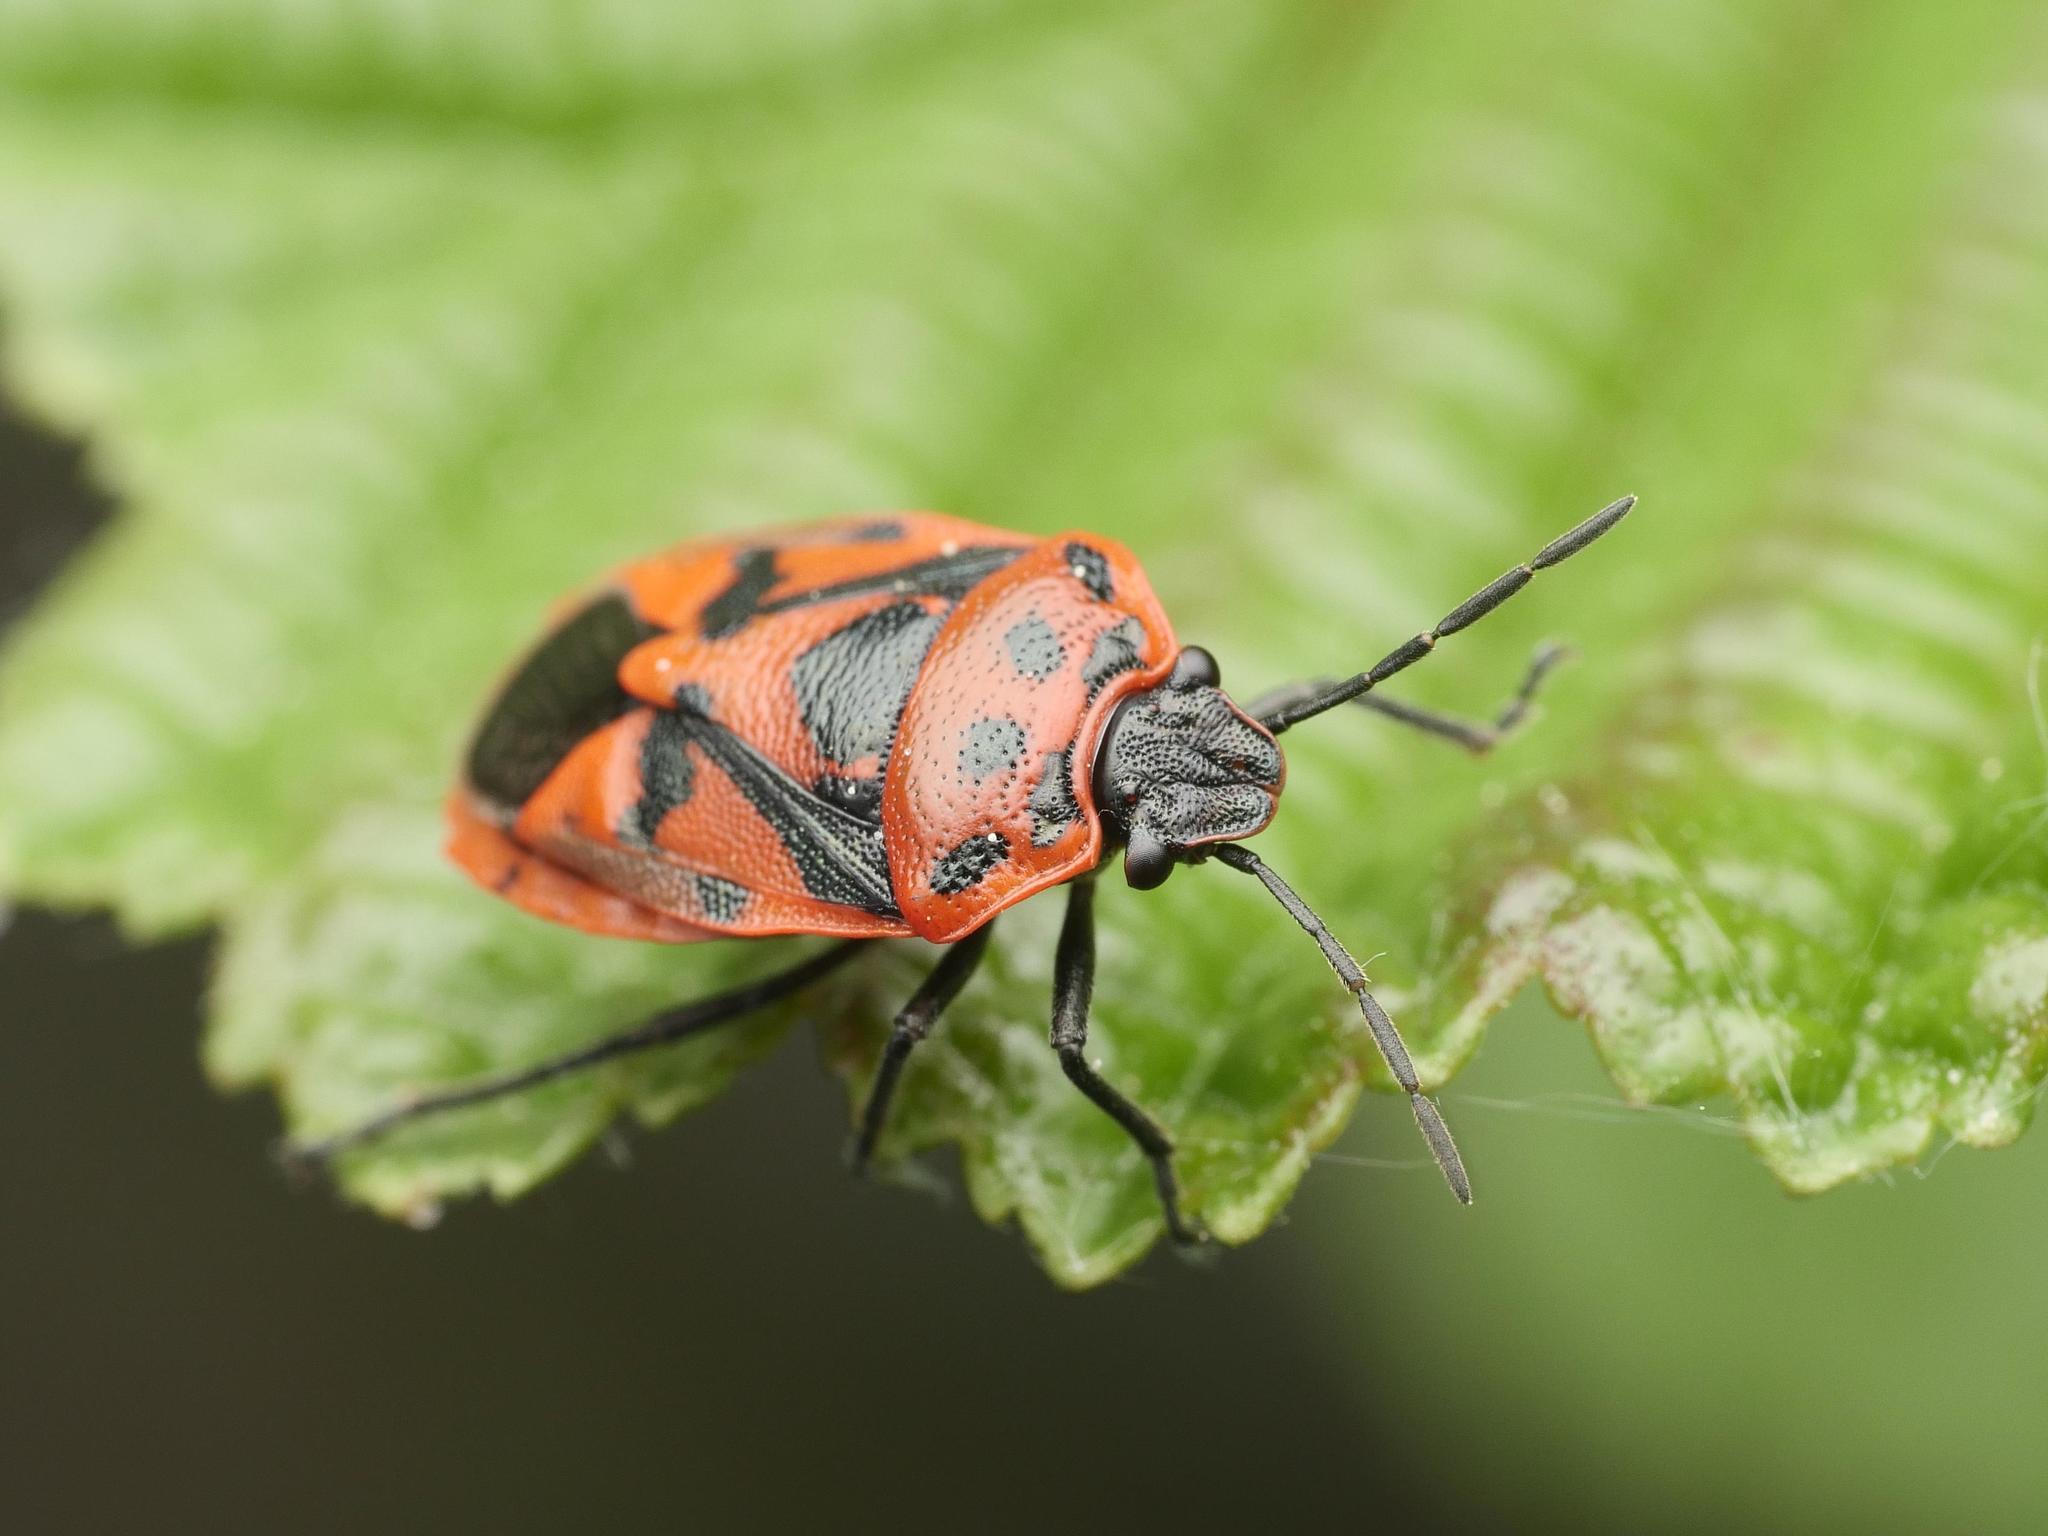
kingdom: Animalia
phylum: Arthropoda
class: Insecta
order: Hemiptera
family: Pentatomidae
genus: Eurydema
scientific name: Eurydema ornata
